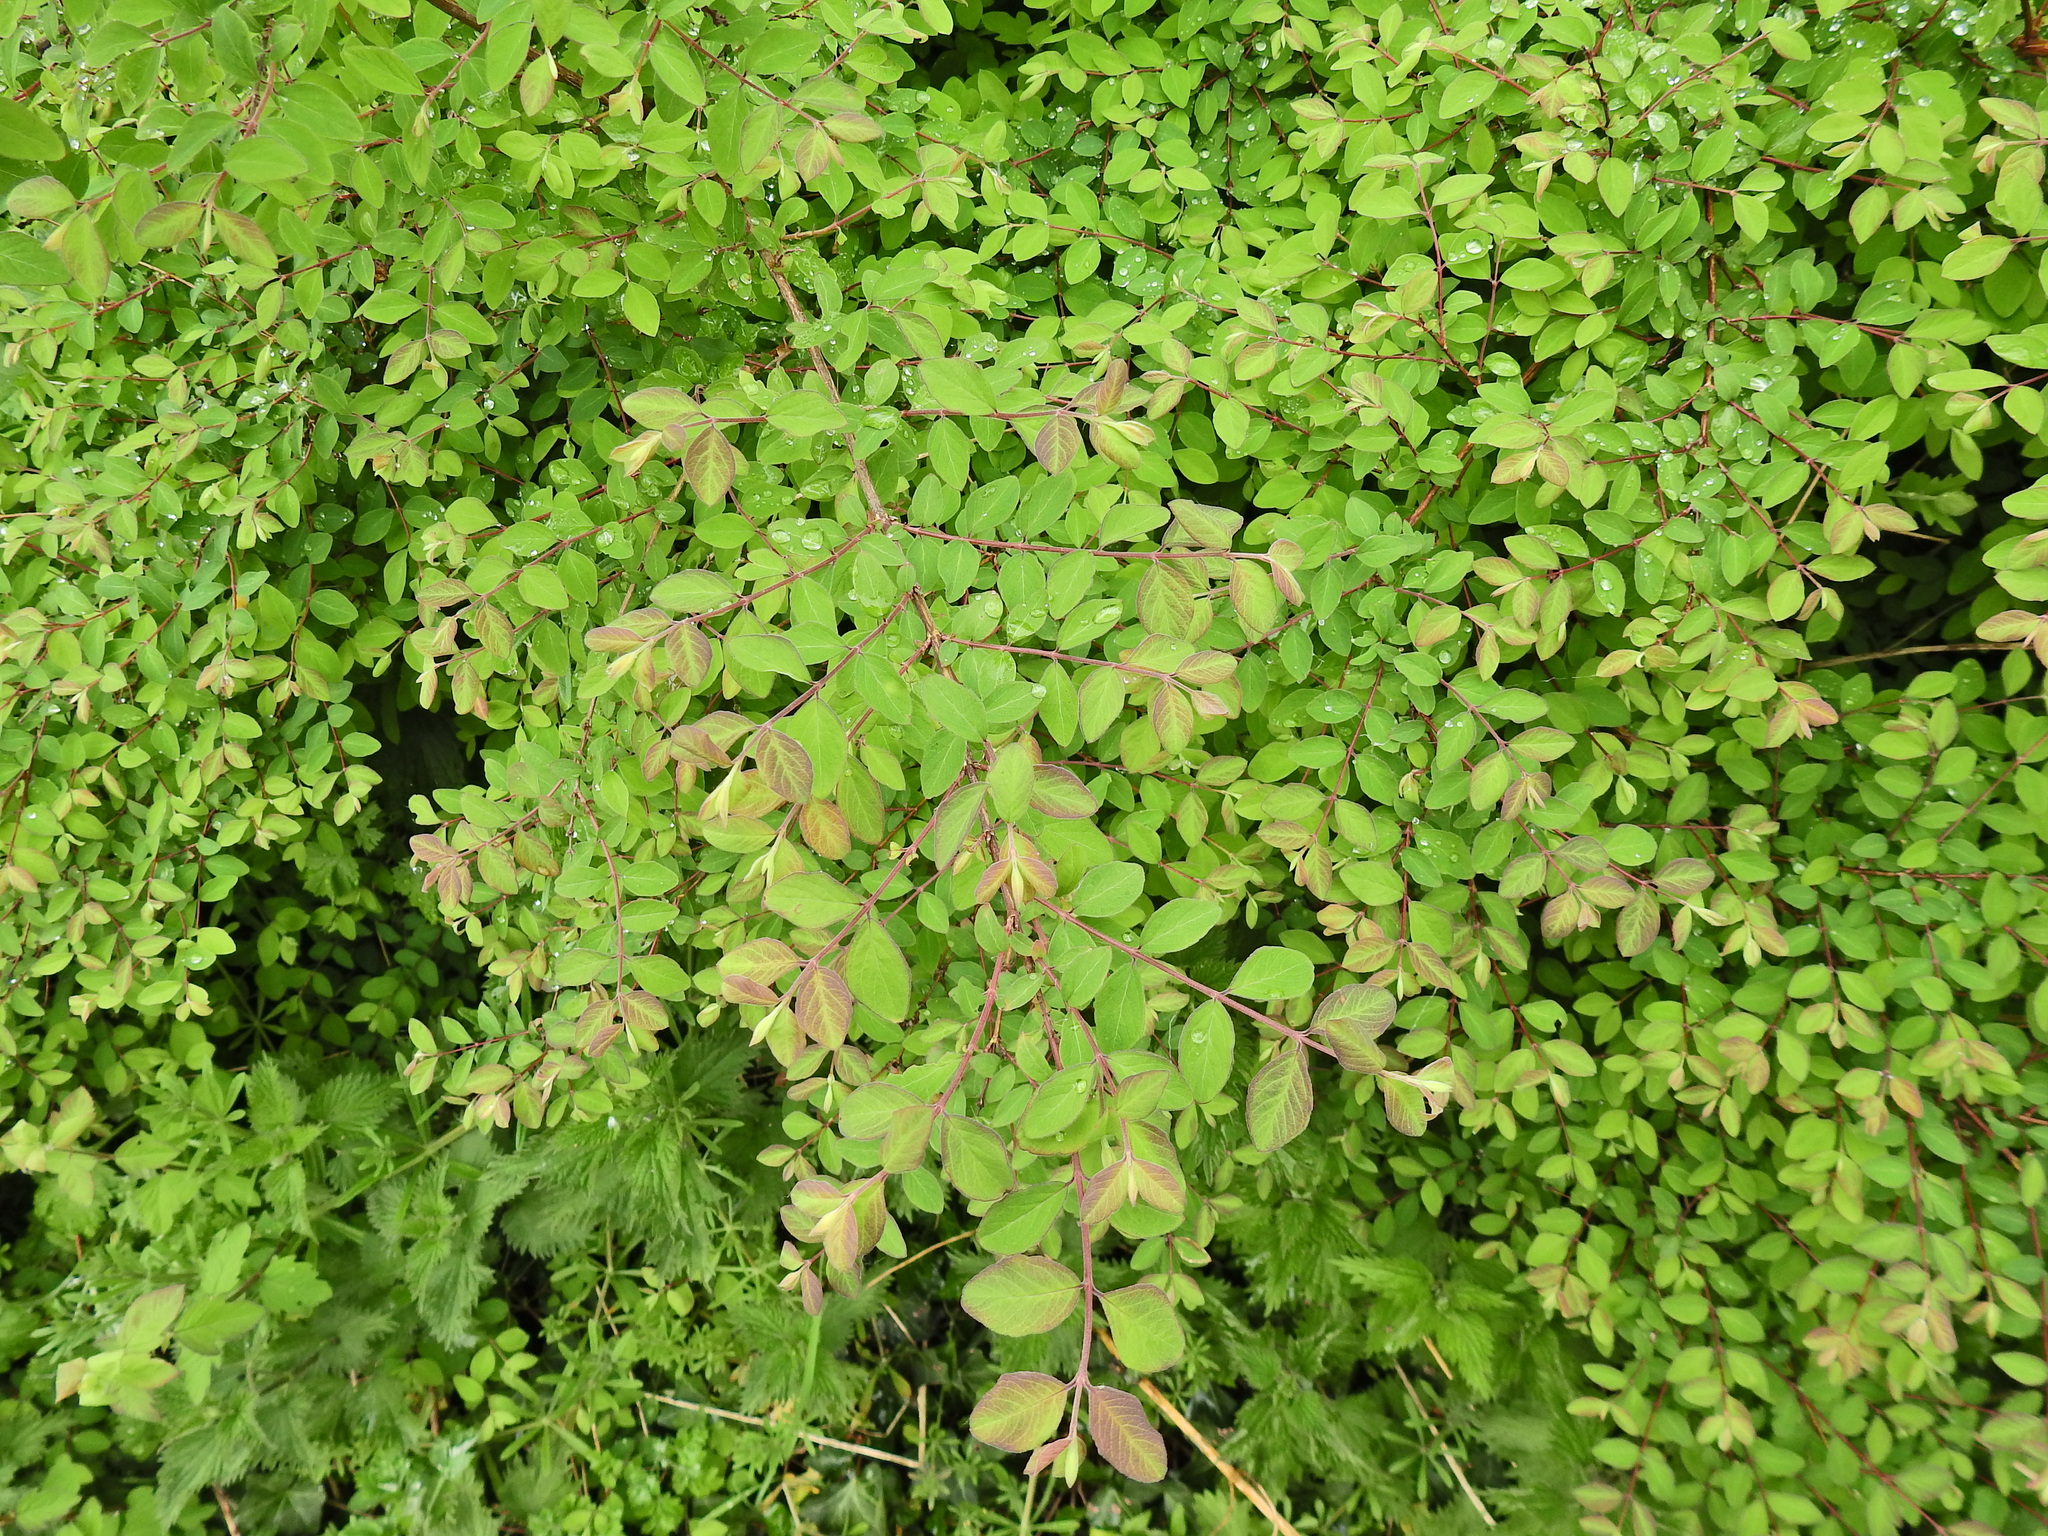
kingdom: Plantae
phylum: Tracheophyta
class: Magnoliopsida
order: Dipsacales
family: Caprifoliaceae
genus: Symphoricarpos
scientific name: Symphoricarpos chenaultii
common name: Hybrid coralberry
